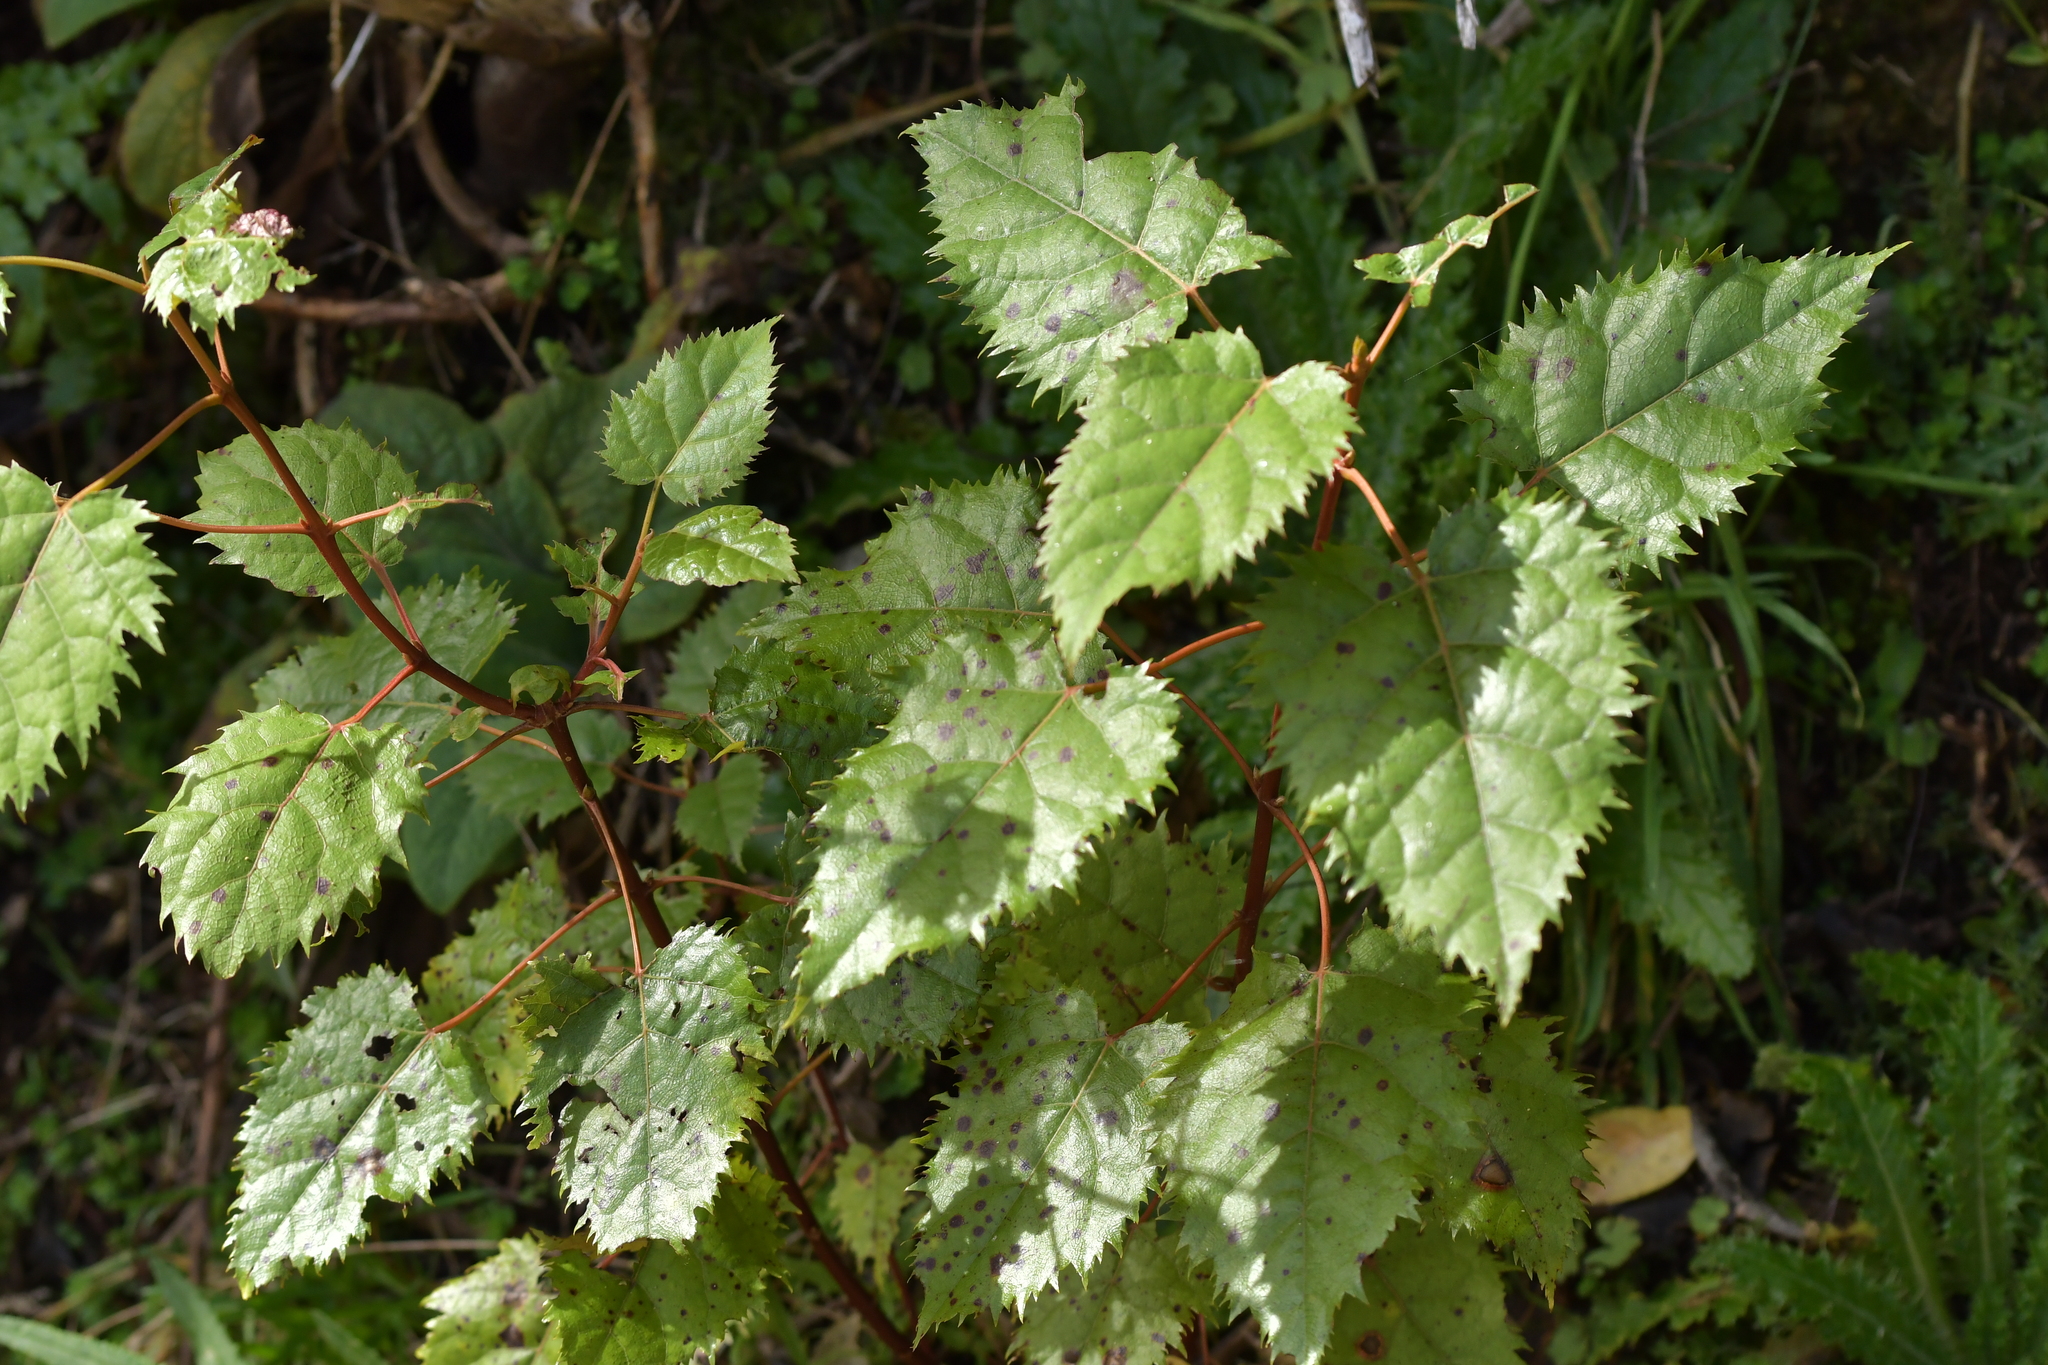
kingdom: Plantae
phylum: Tracheophyta
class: Magnoliopsida
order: Oxalidales
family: Elaeocarpaceae
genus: Aristotelia
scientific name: Aristotelia serrata
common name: New zealand wineberry
